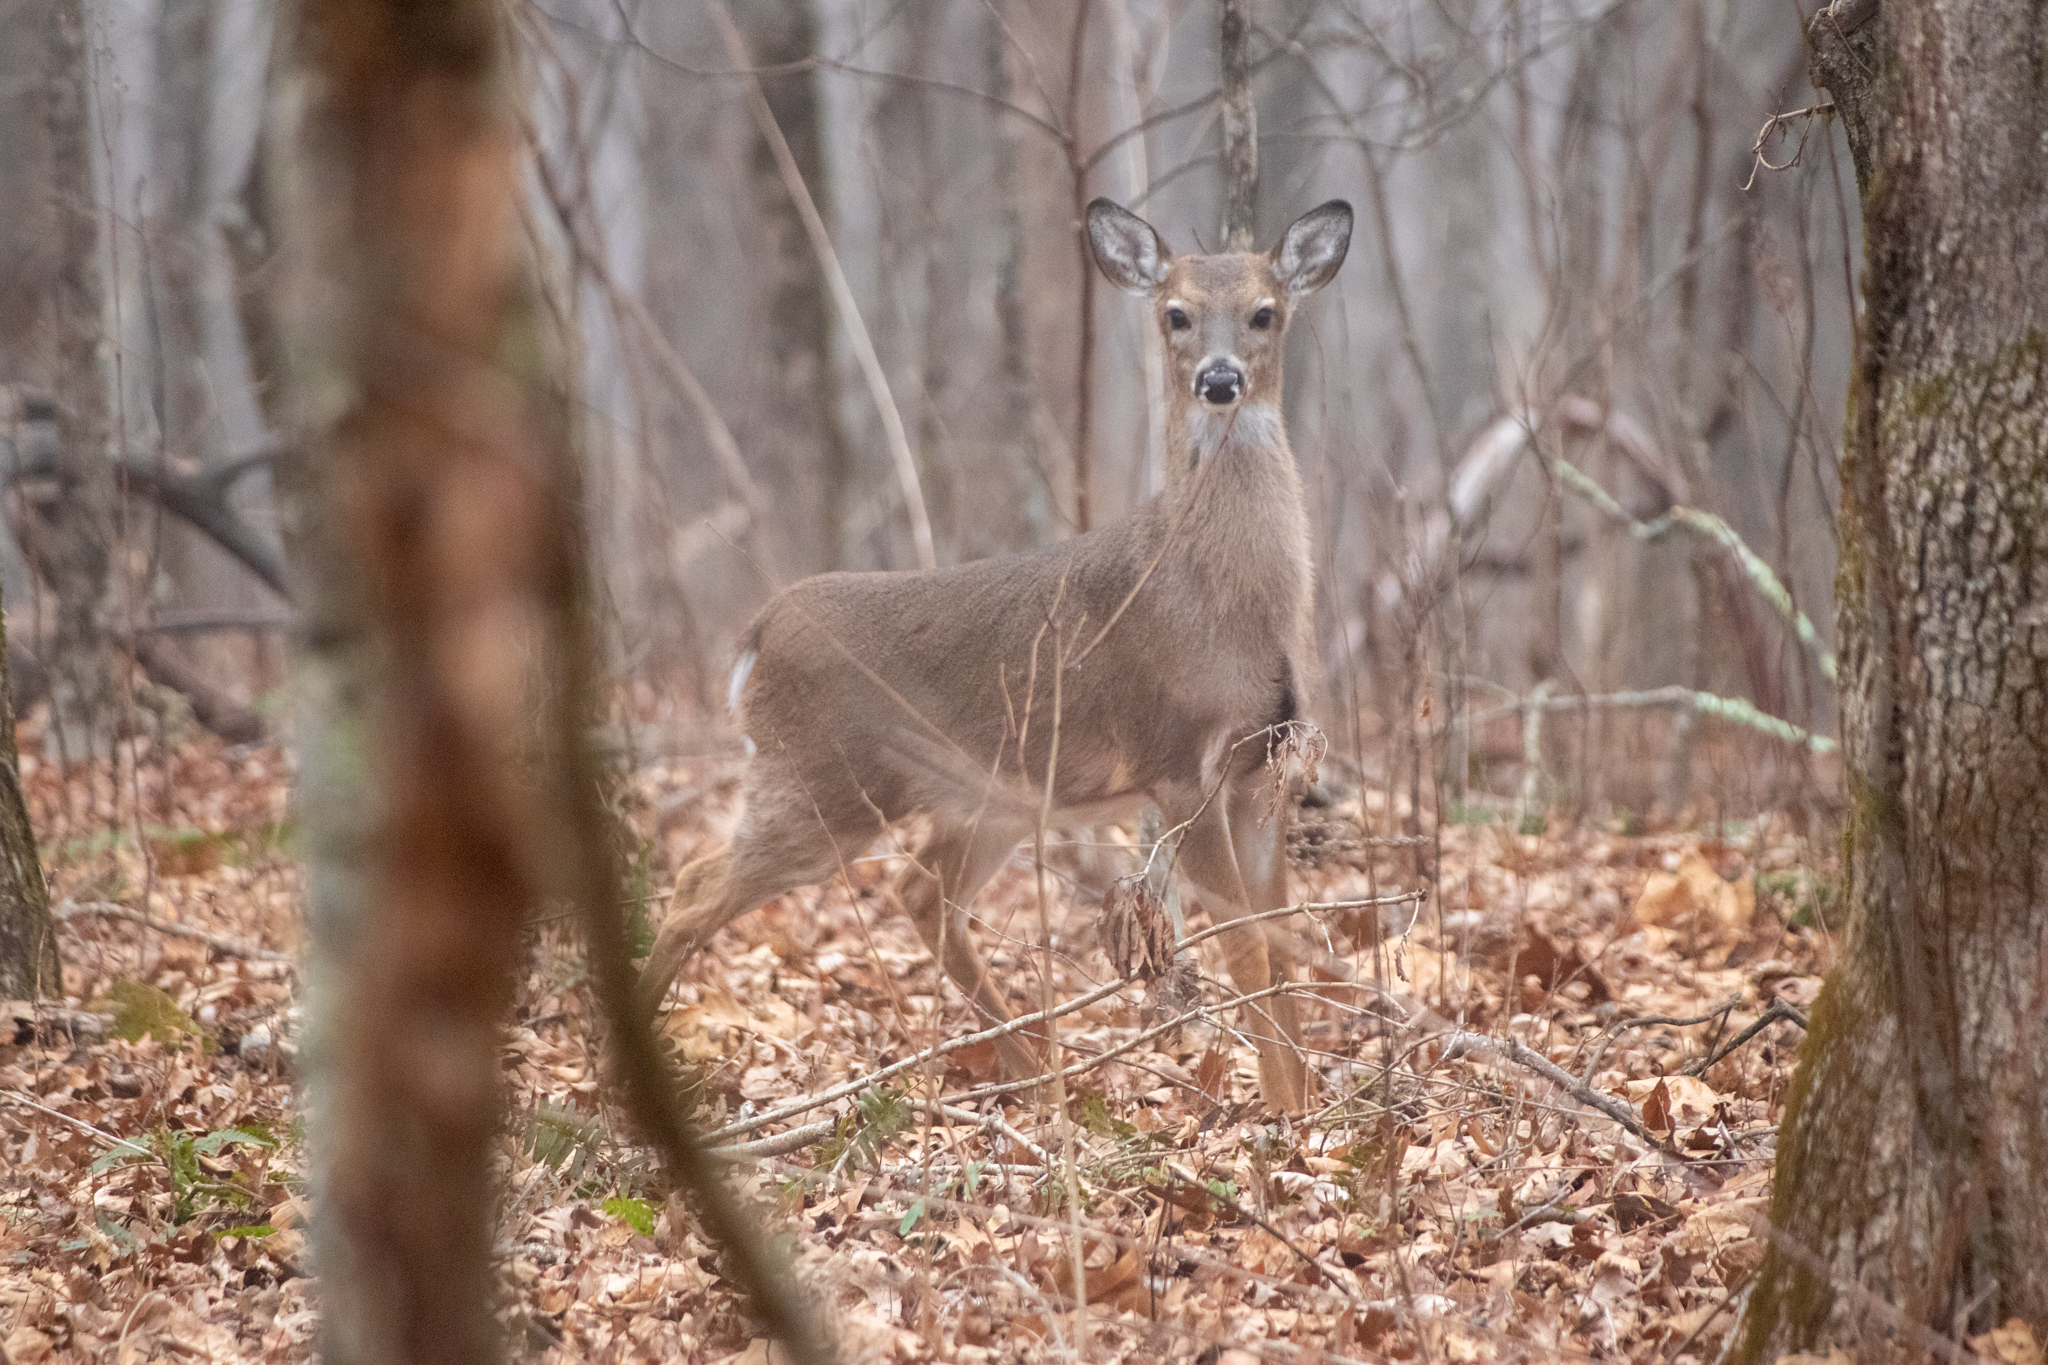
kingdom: Animalia
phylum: Chordata
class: Mammalia
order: Artiodactyla
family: Cervidae
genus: Odocoileus
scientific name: Odocoileus virginianus
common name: White-tailed deer
